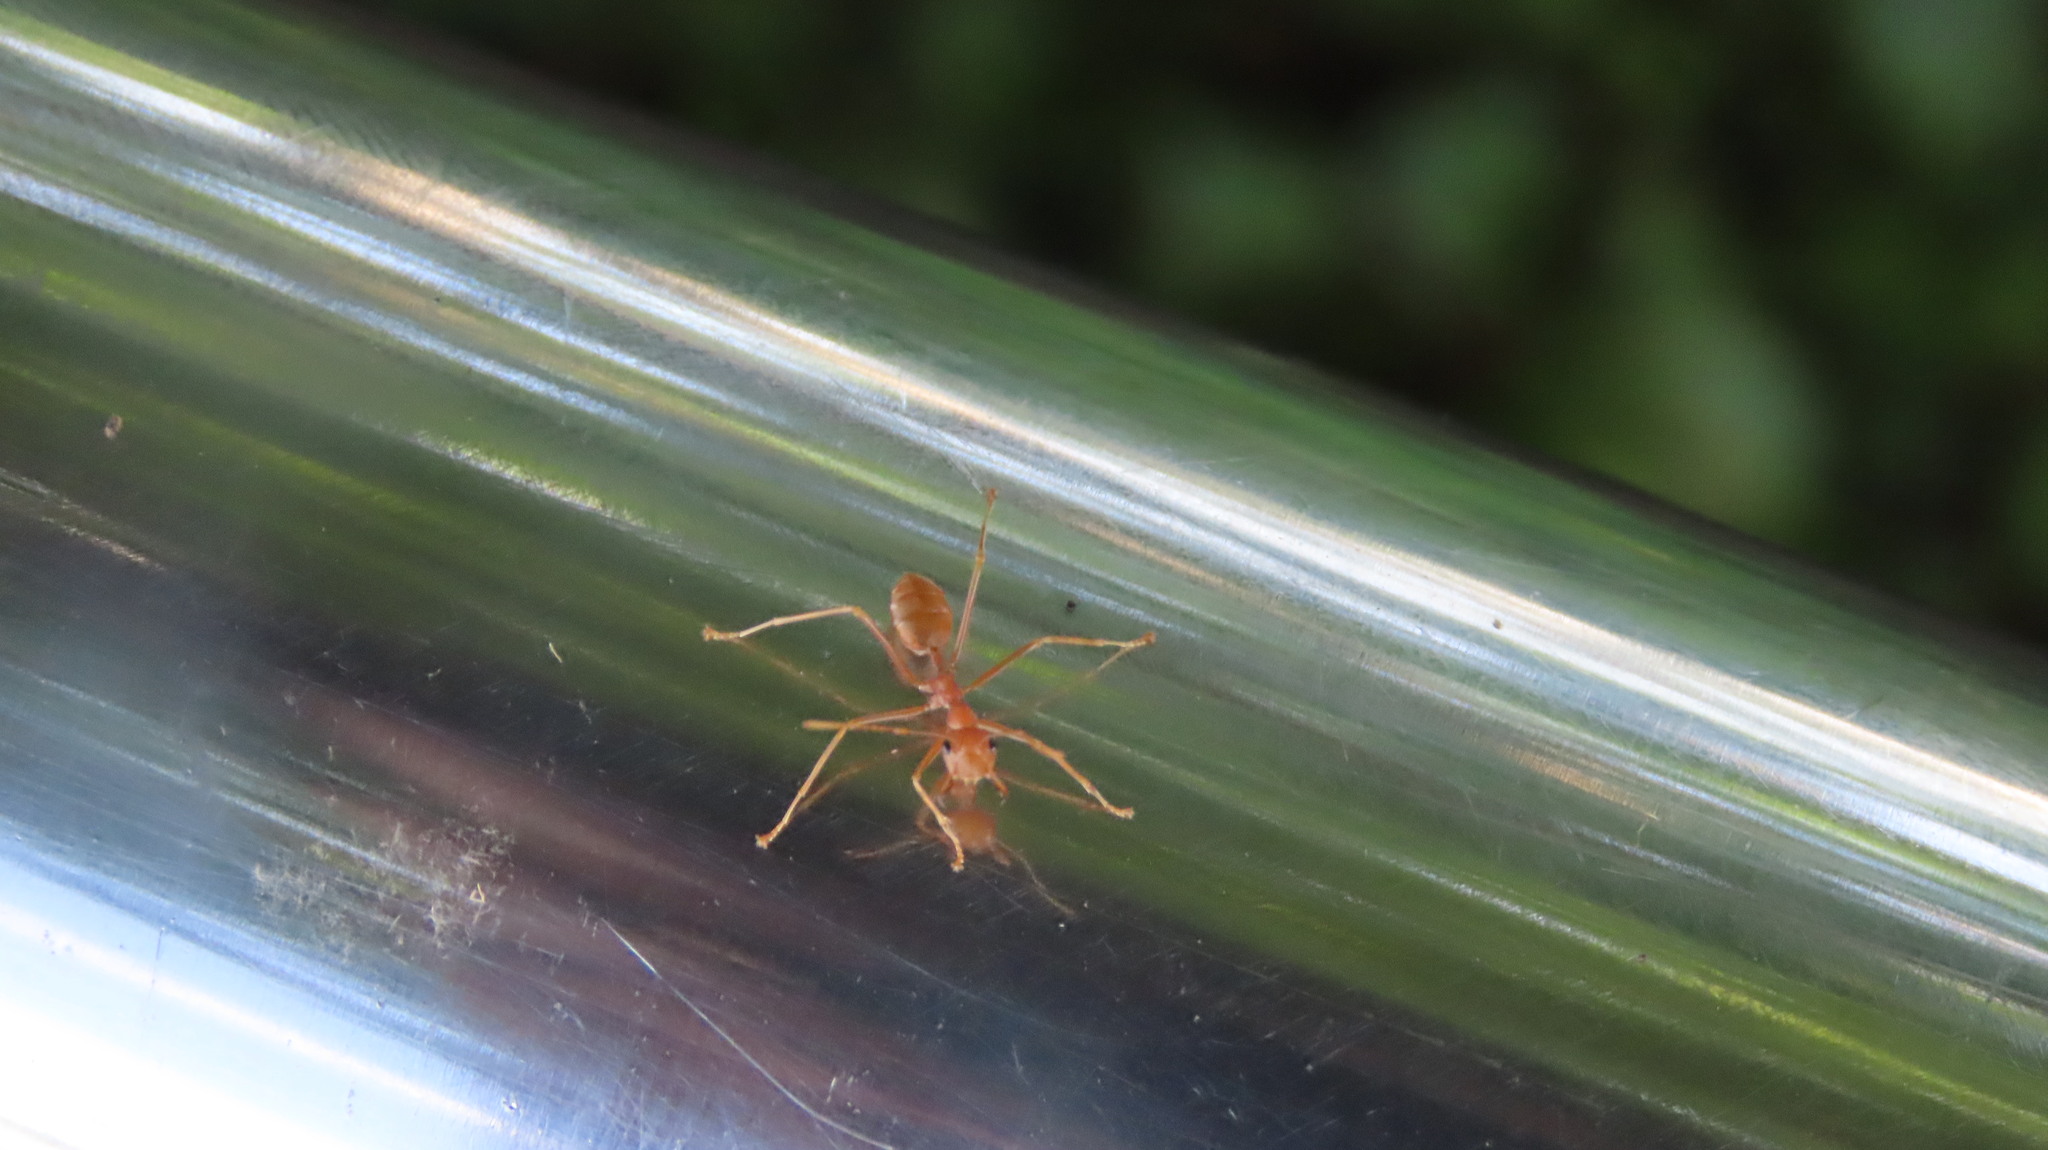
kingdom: Animalia
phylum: Arthropoda
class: Insecta
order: Hymenoptera
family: Formicidae
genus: Oecophylla
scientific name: Oecophylla smaragdina
